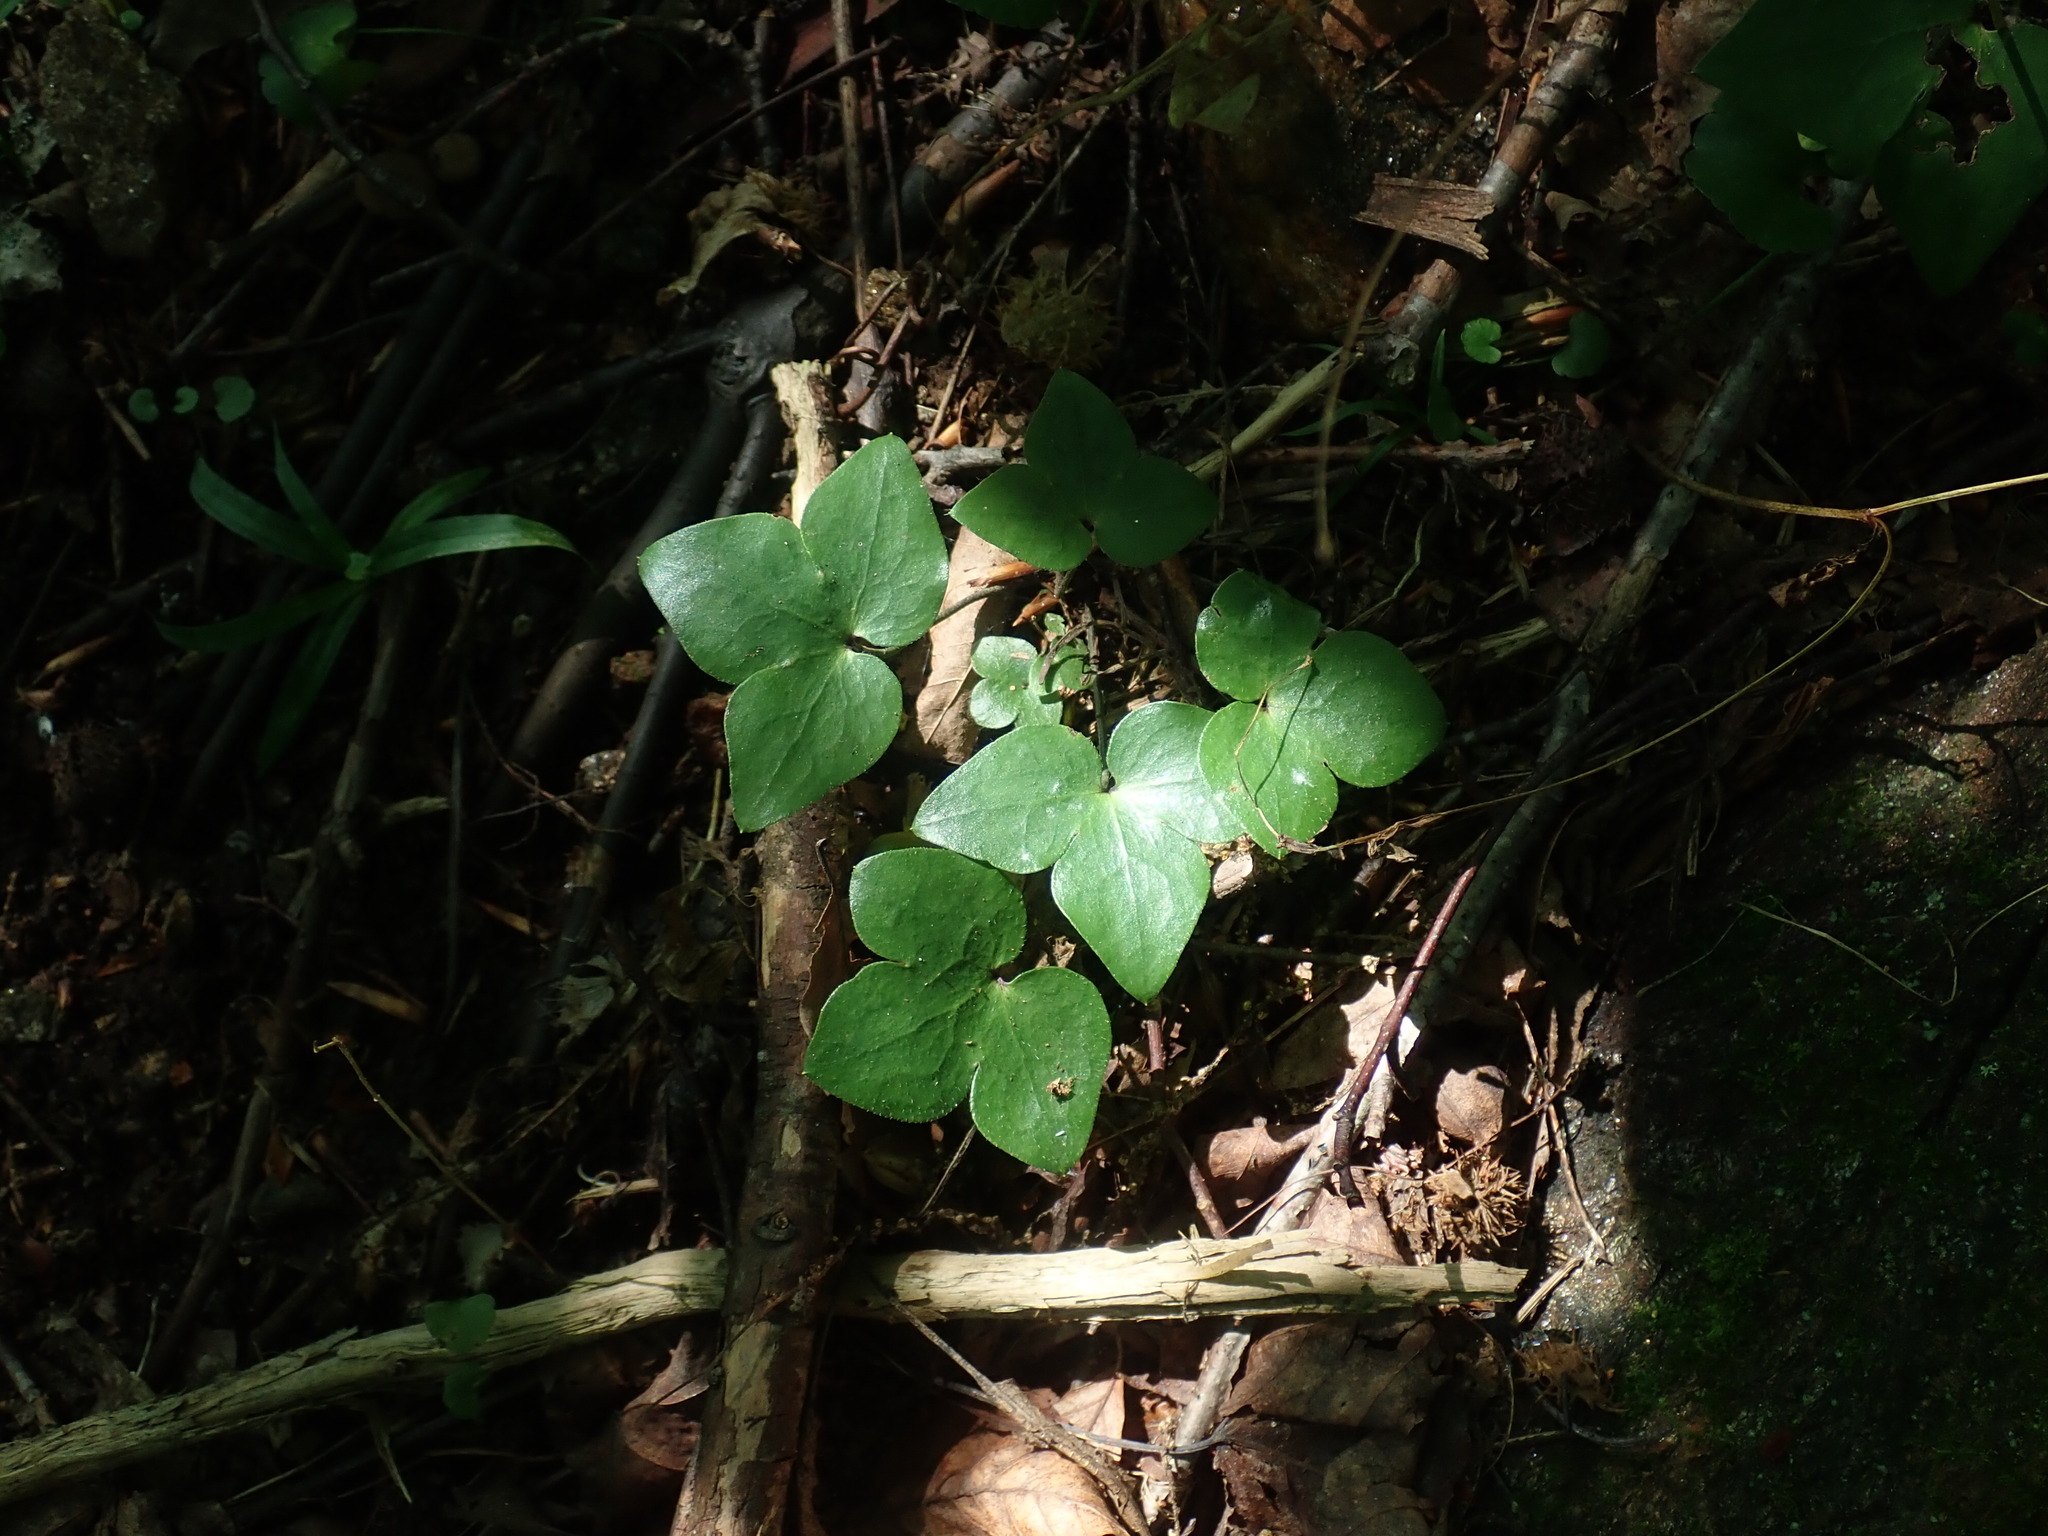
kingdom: Plantae
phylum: Tracheophyta
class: Magnoliopsida
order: Ranunculales
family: Ranunculaceae
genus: Hepatica
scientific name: Hepatica acutiloba
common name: Sharp-lobed hepatica
